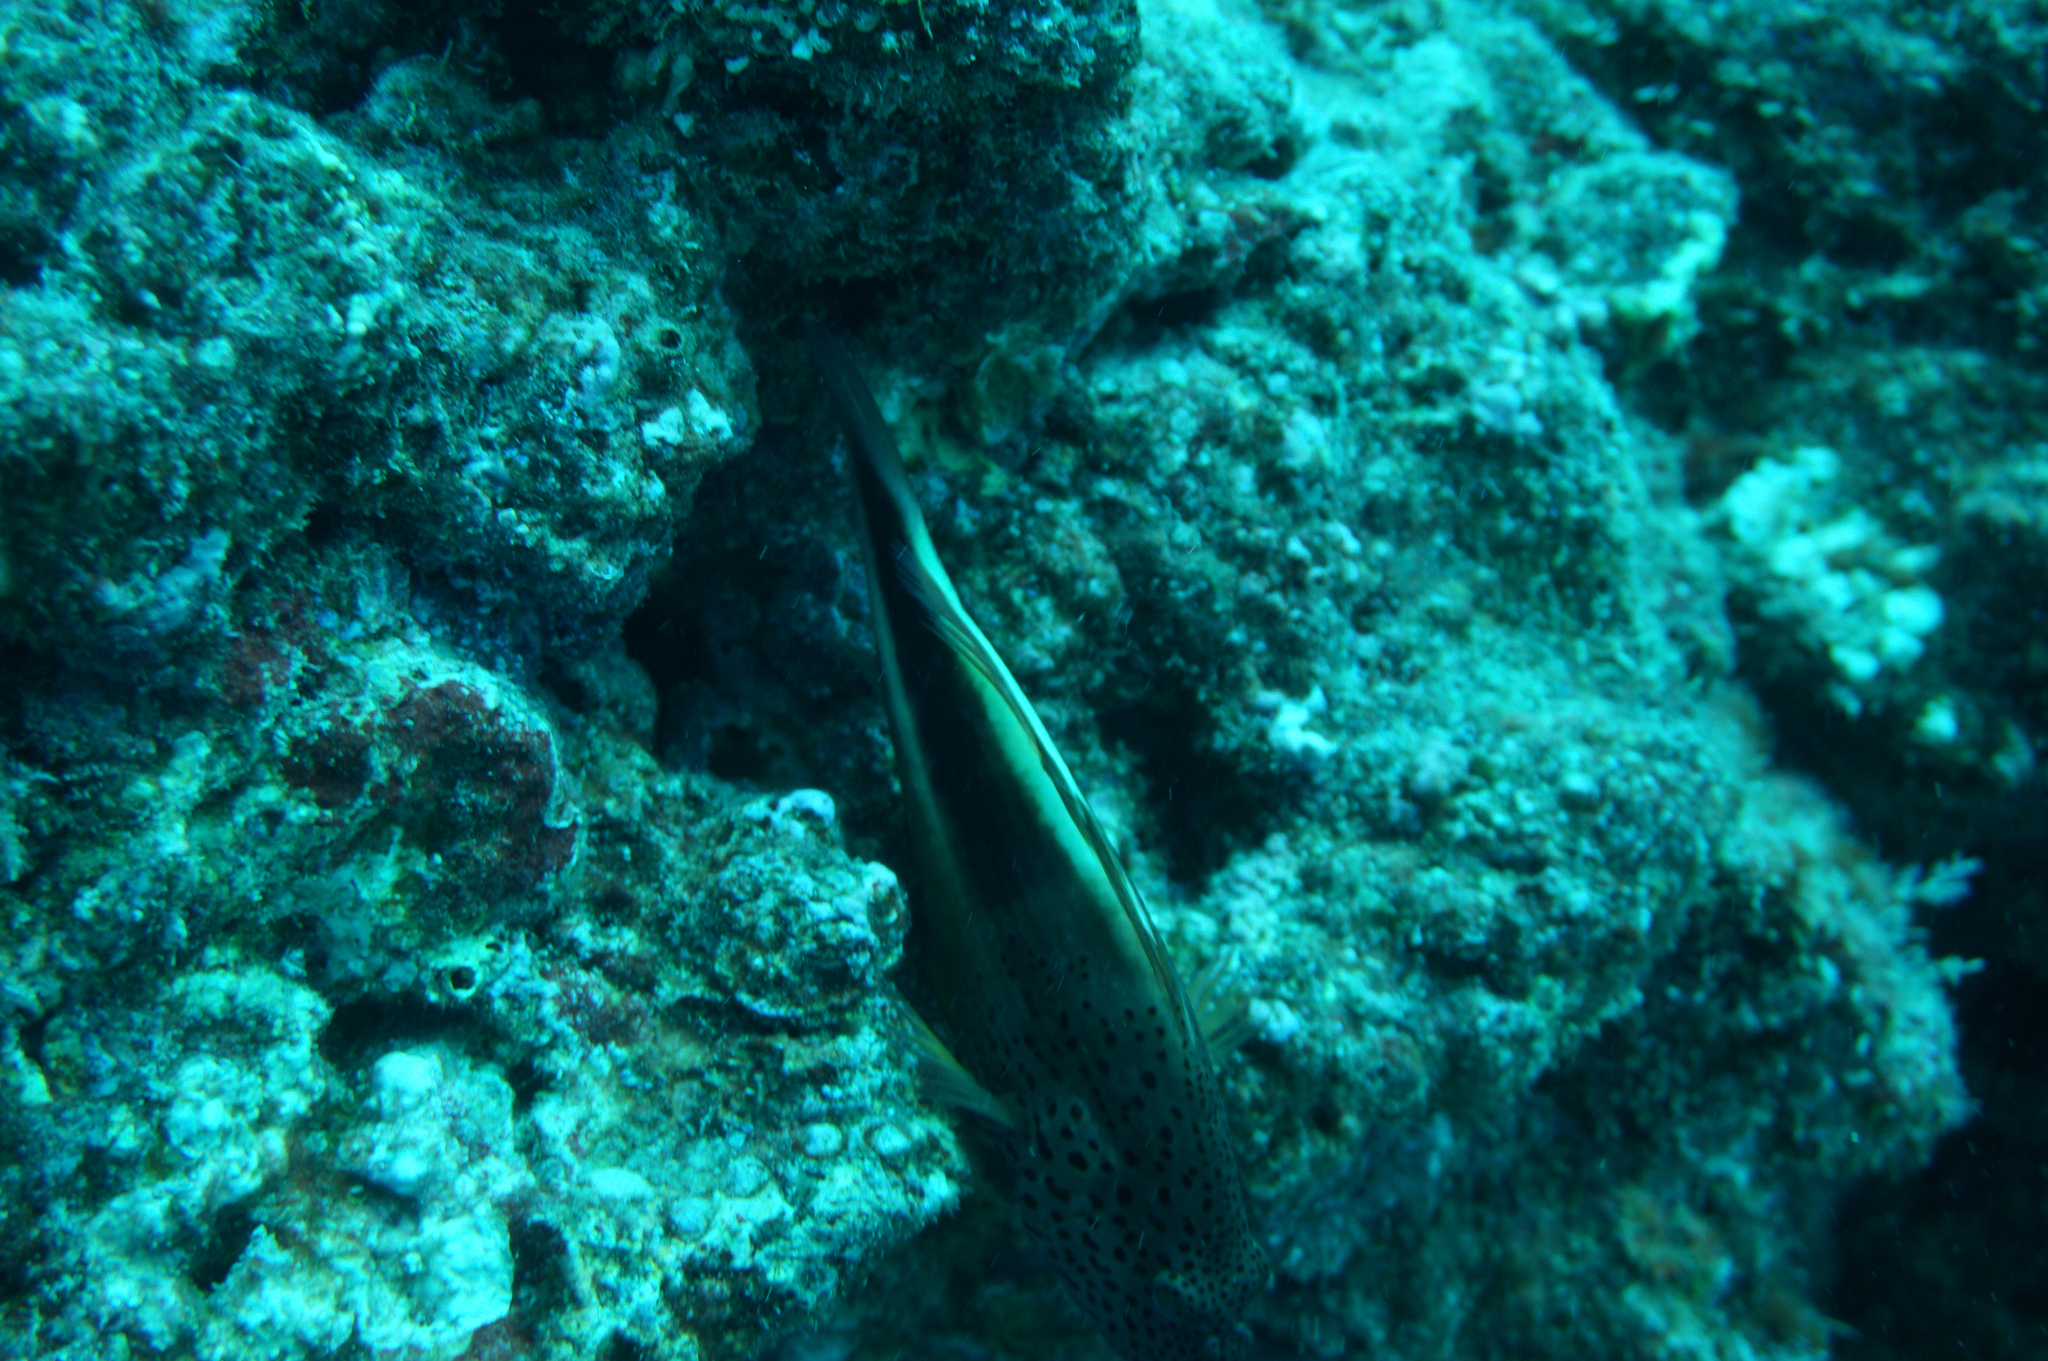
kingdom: Animalia
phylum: Chordata
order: Perciformes
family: Cirrhitidae
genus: Paracirrhites
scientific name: Paracirrhites forsteri
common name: Freckled hawkfish
